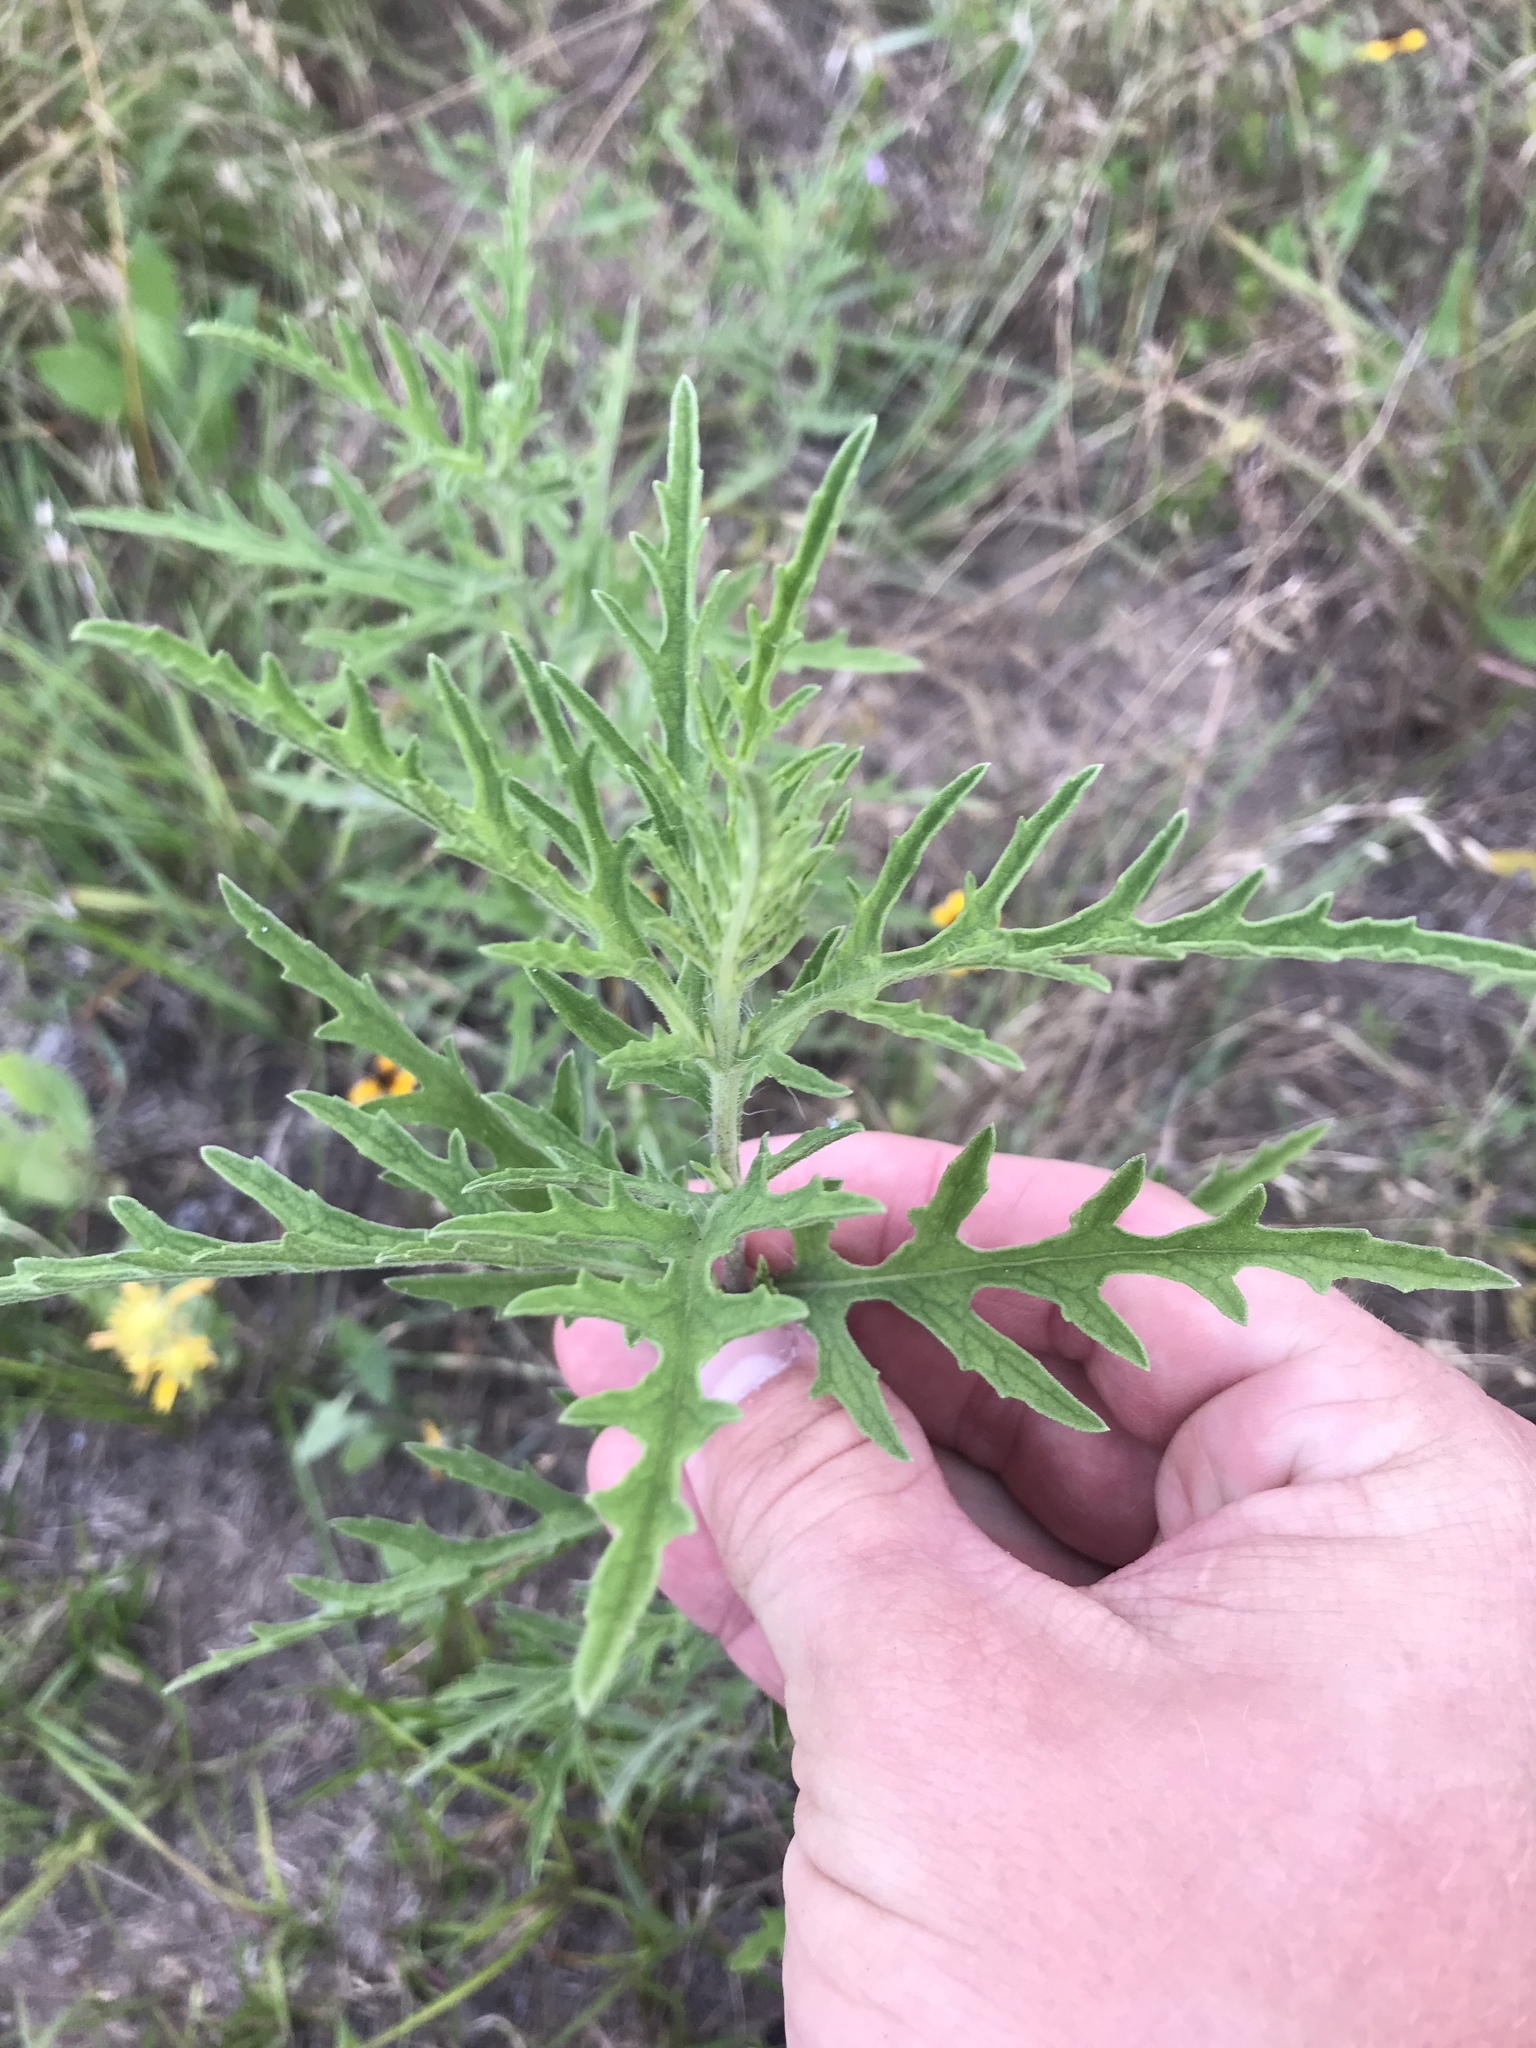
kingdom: Plantae
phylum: Tracheophyta
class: Magnoliopsida
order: Asterales
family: Asteraceae
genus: Ambrosia
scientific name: Ambrosia psilostachya
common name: Perennial ragweed
